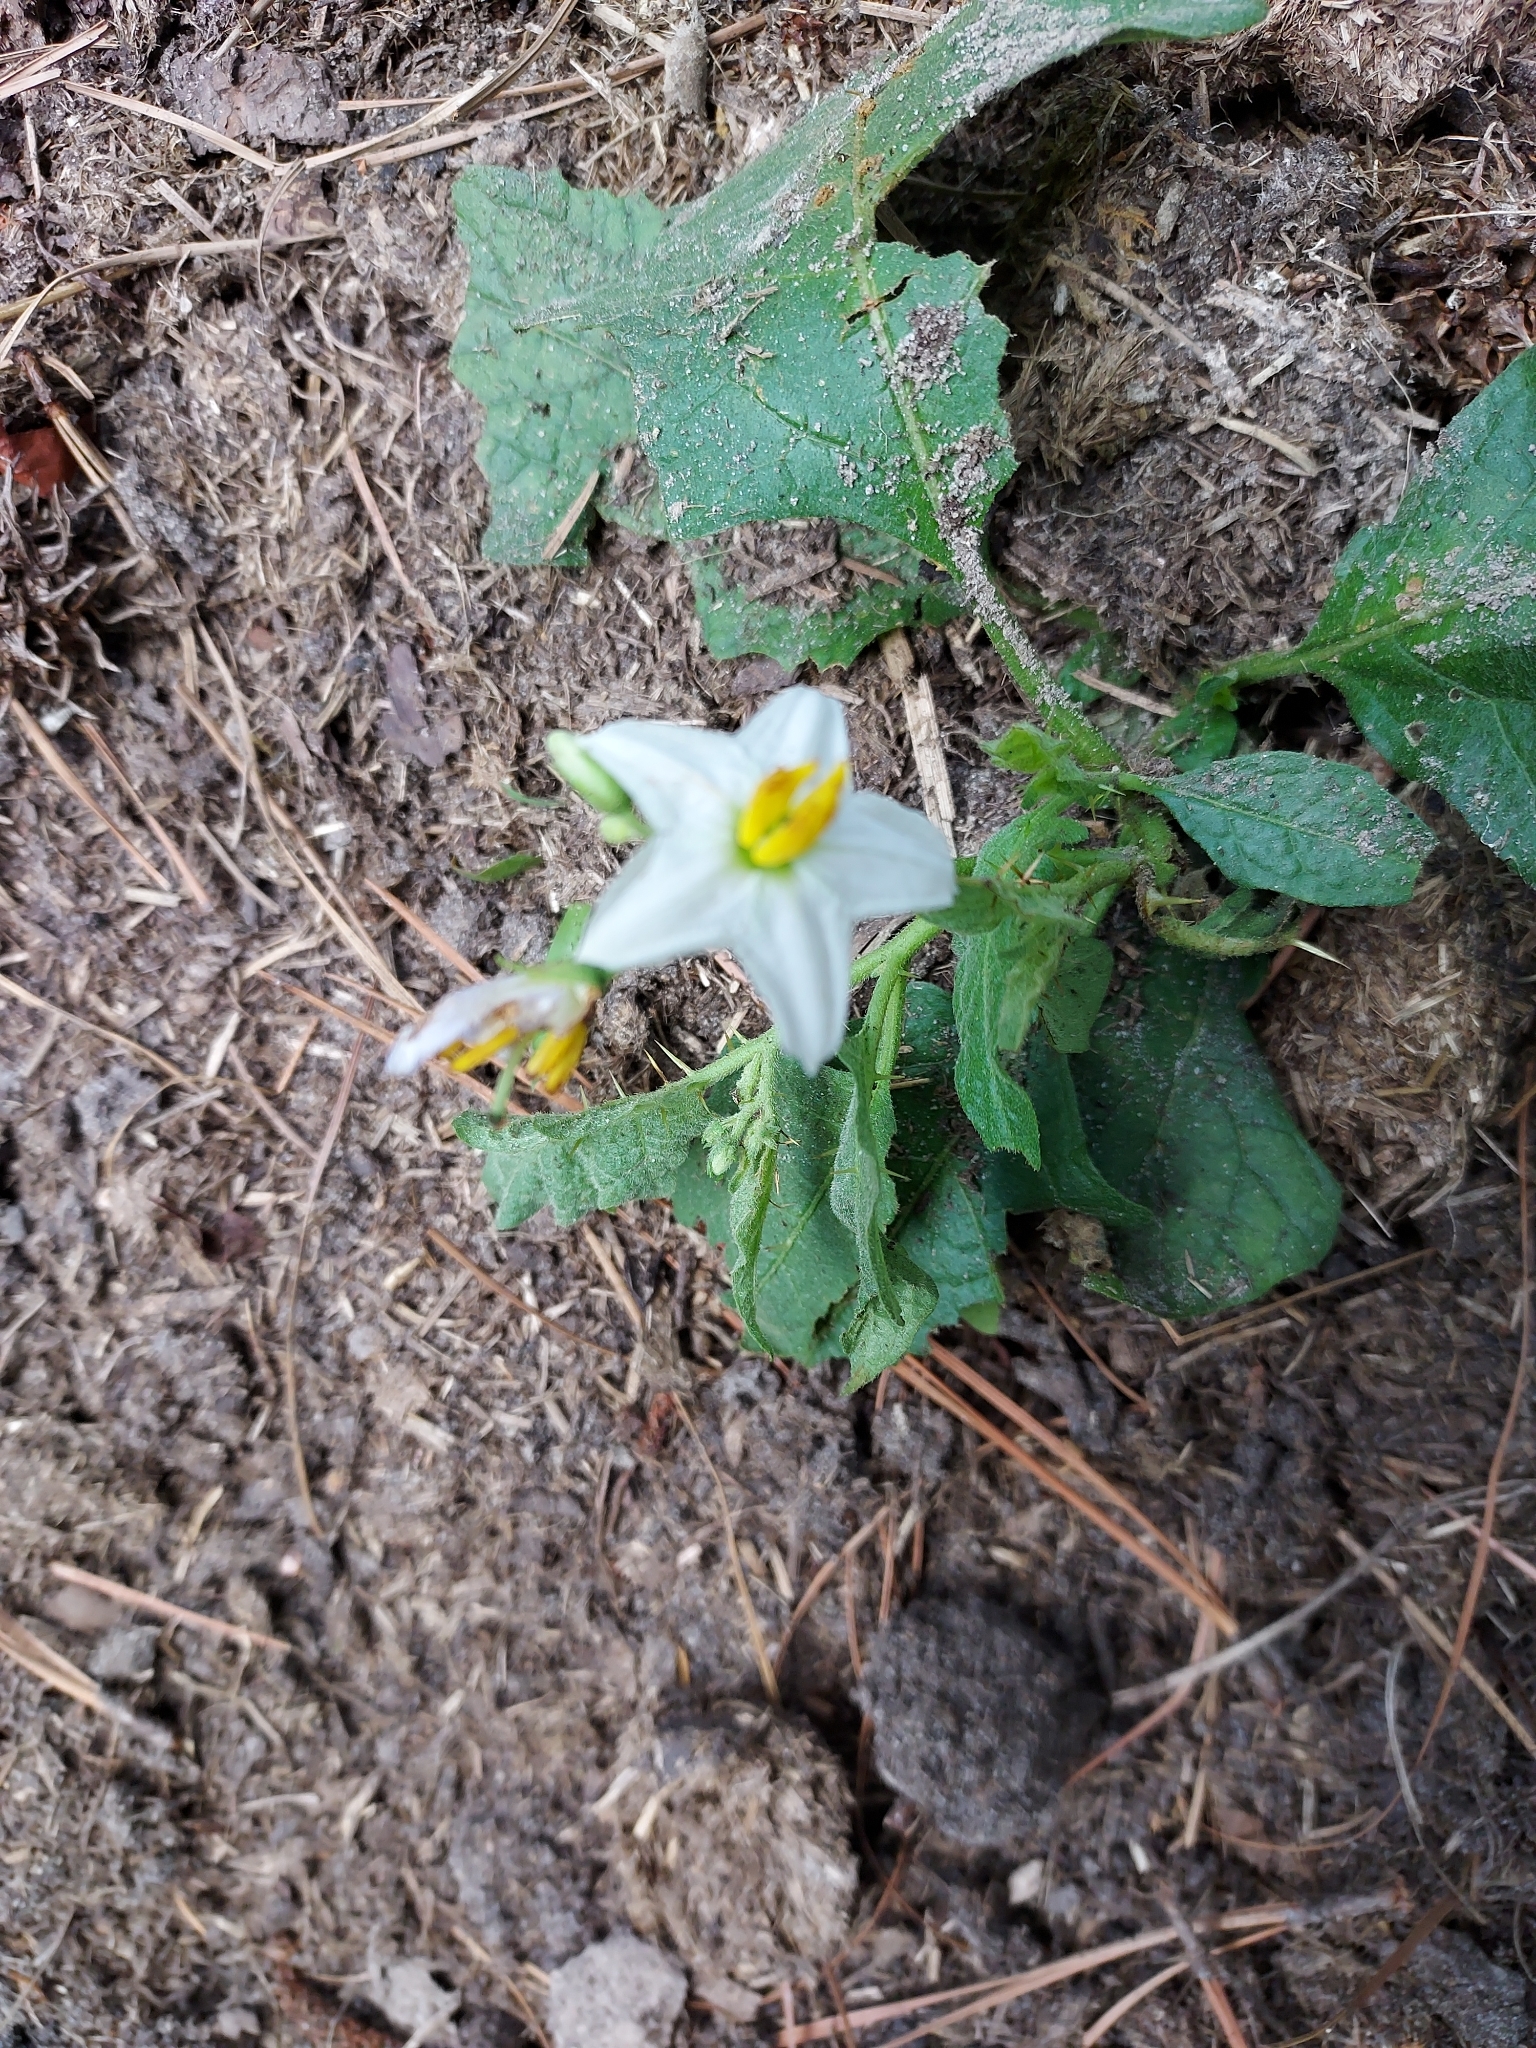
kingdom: Plantae
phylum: Tracheophyta
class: Magnoliopsida
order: Solanales
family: Solanaceae
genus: Solanum
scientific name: Solanum carolinense
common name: Horse-nettle
